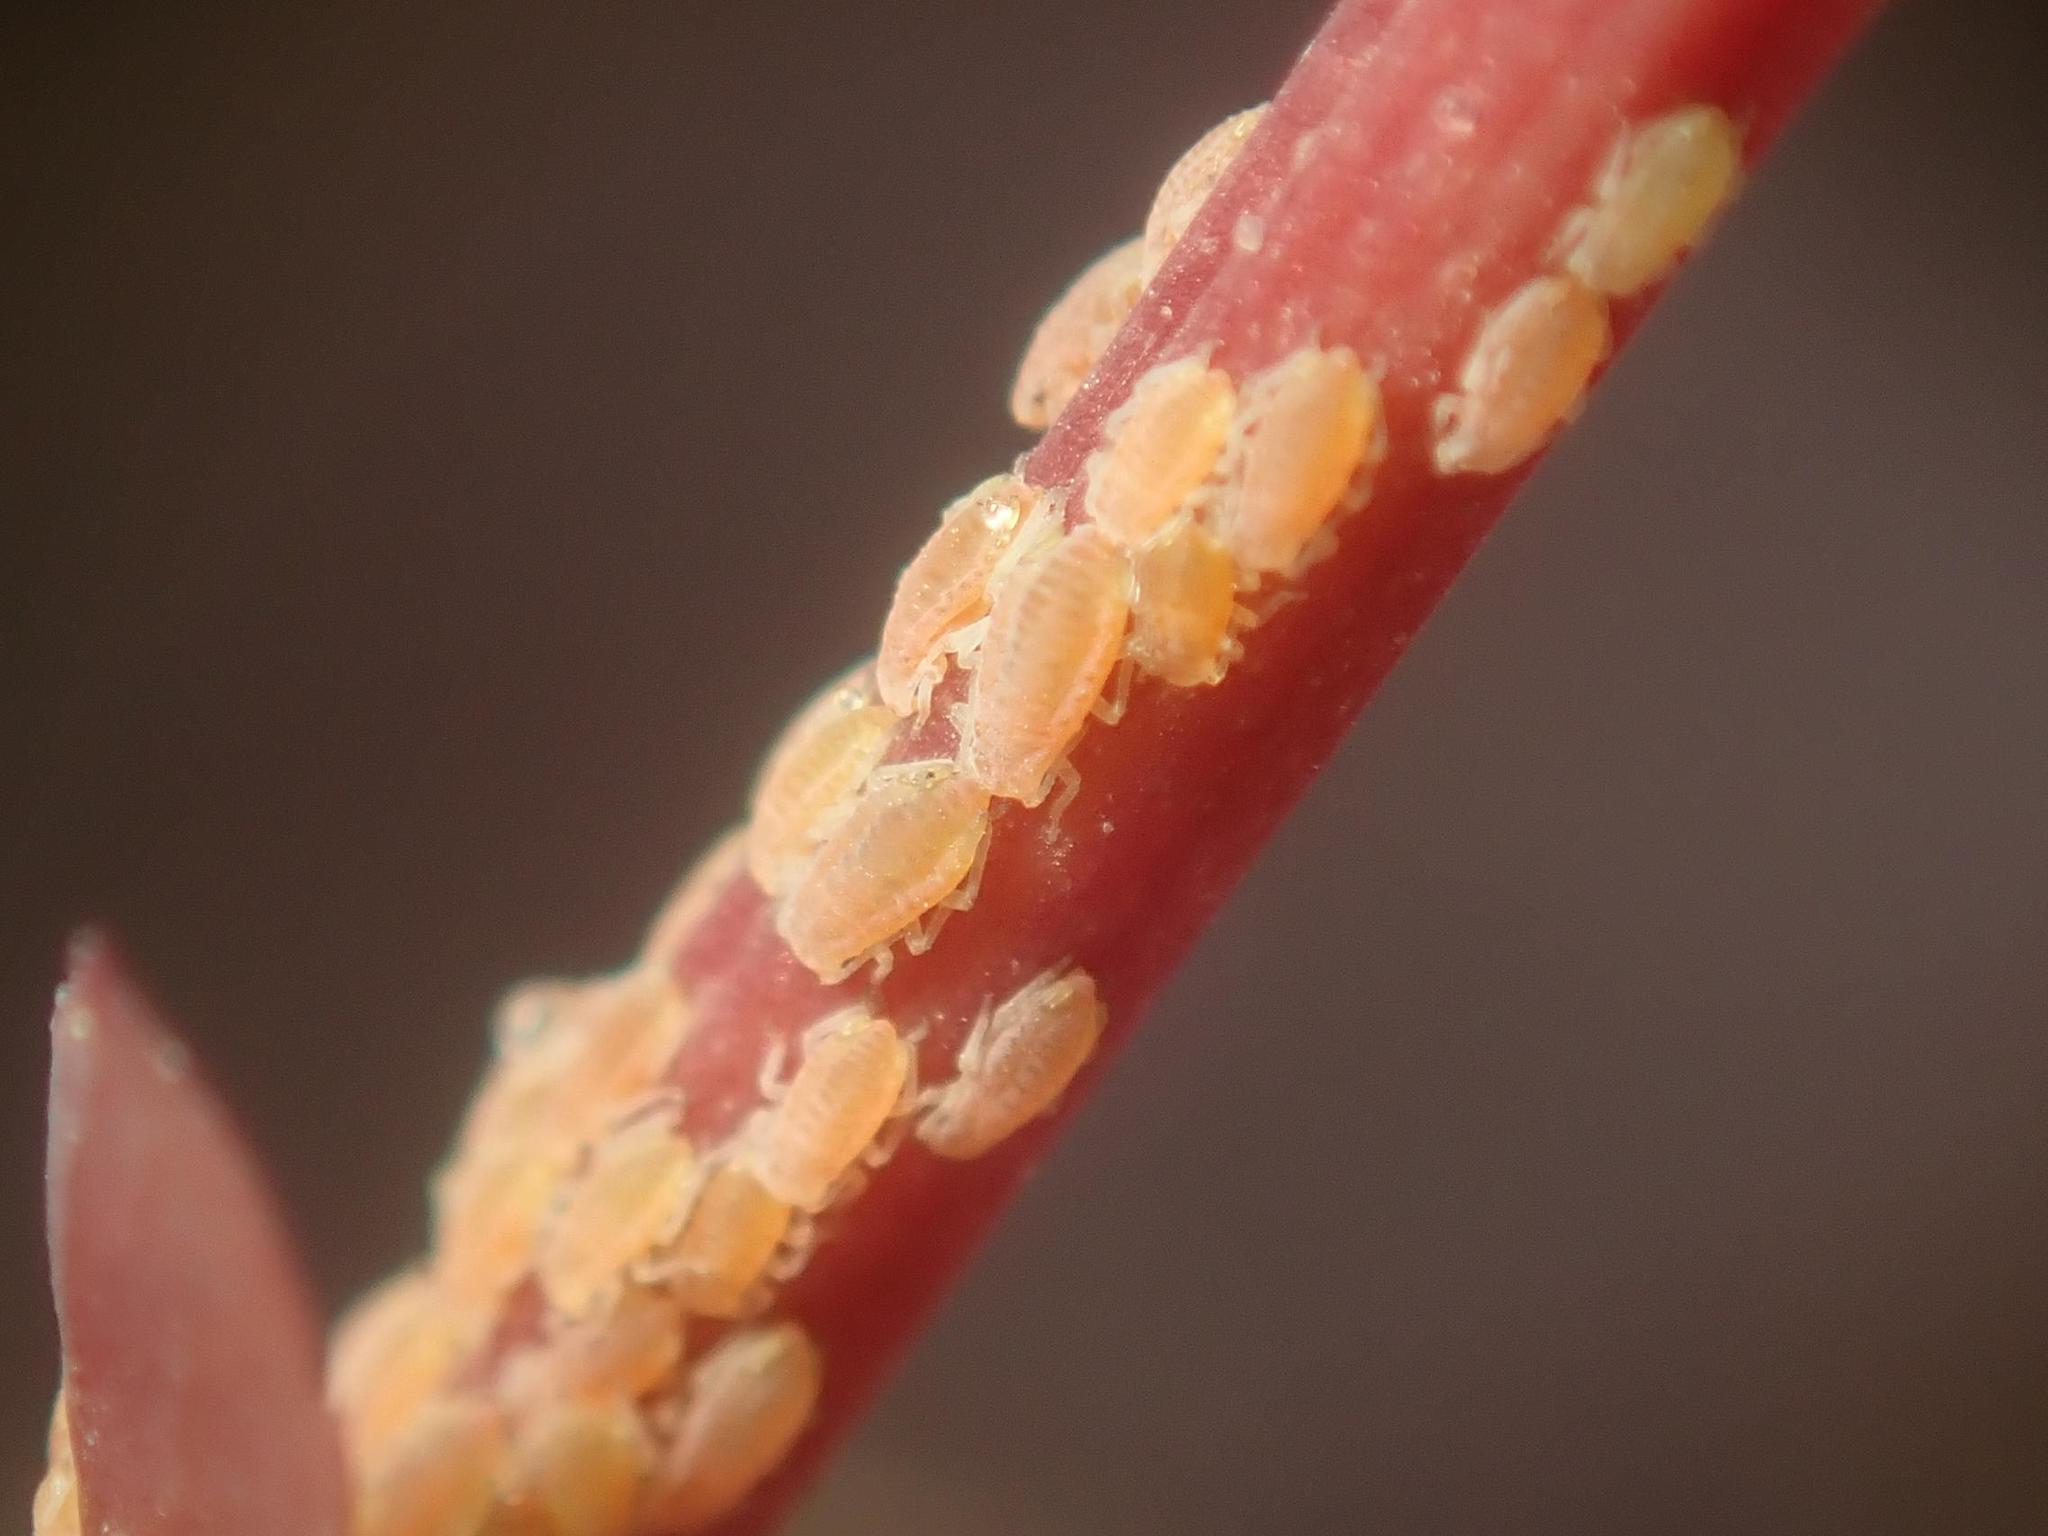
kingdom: Animalia
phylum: Arthropoda
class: Insecta
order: Hemiptera
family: Aphididae
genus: Liosomaphis
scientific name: Liosomaphis berberidis
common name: Barberry aphid
